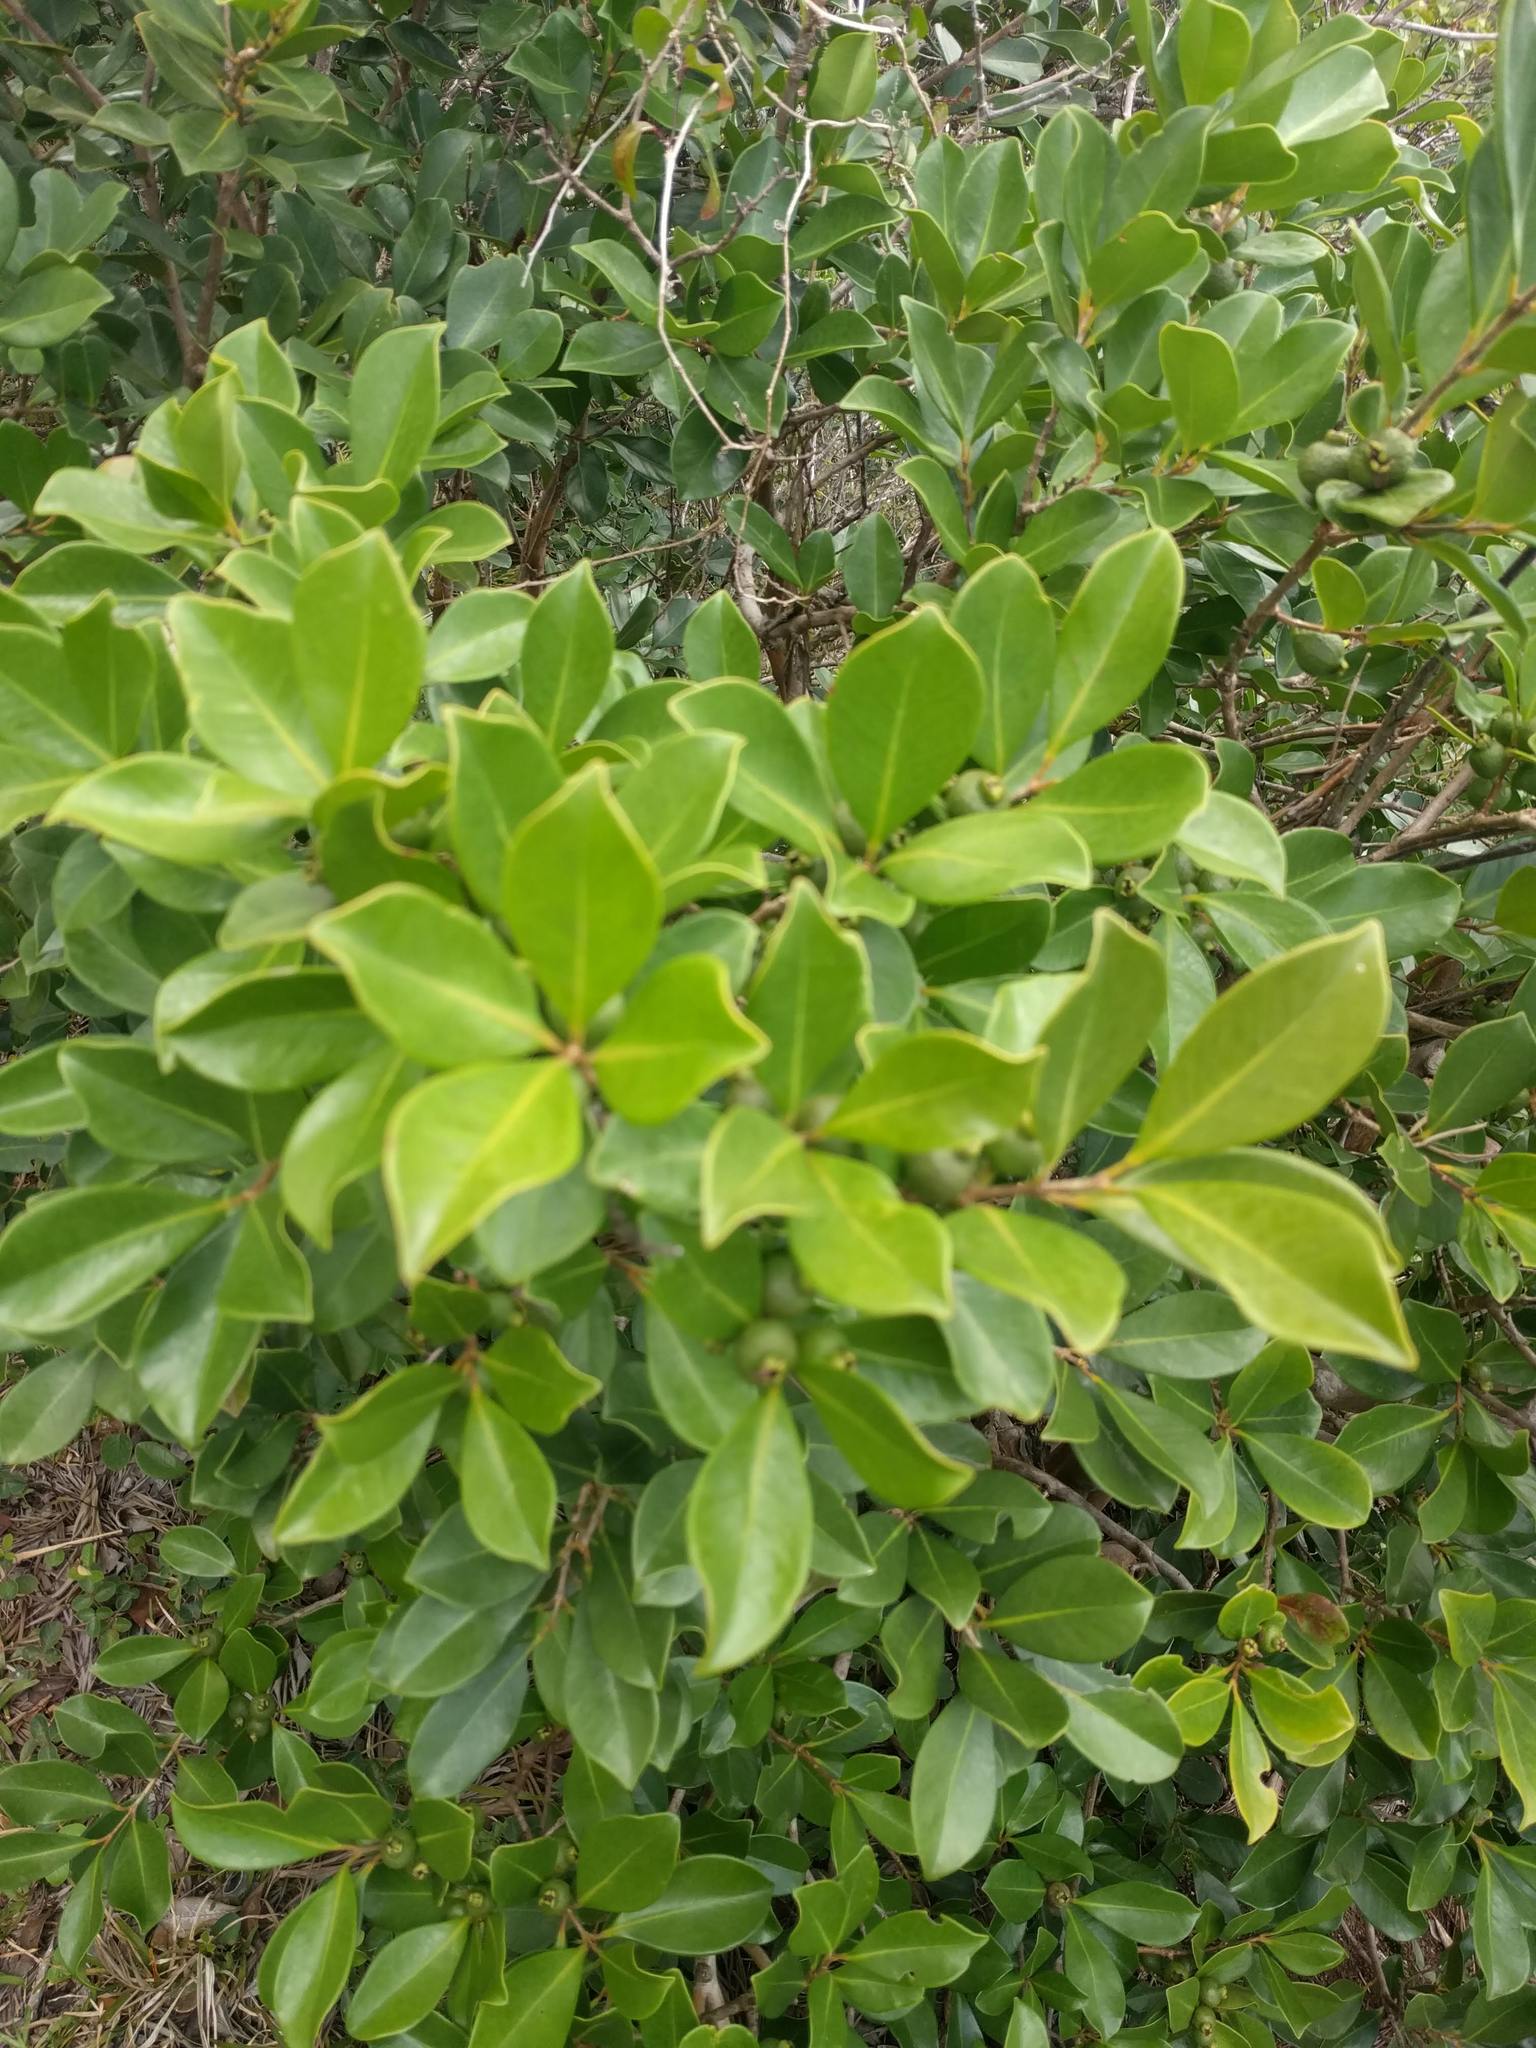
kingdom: Plantae
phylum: Tracheophyta
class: Magnoliopsida
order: Myrtales
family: Myrtaceae
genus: Psidium
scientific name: Psidium cattleianum
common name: Strawberry guava
